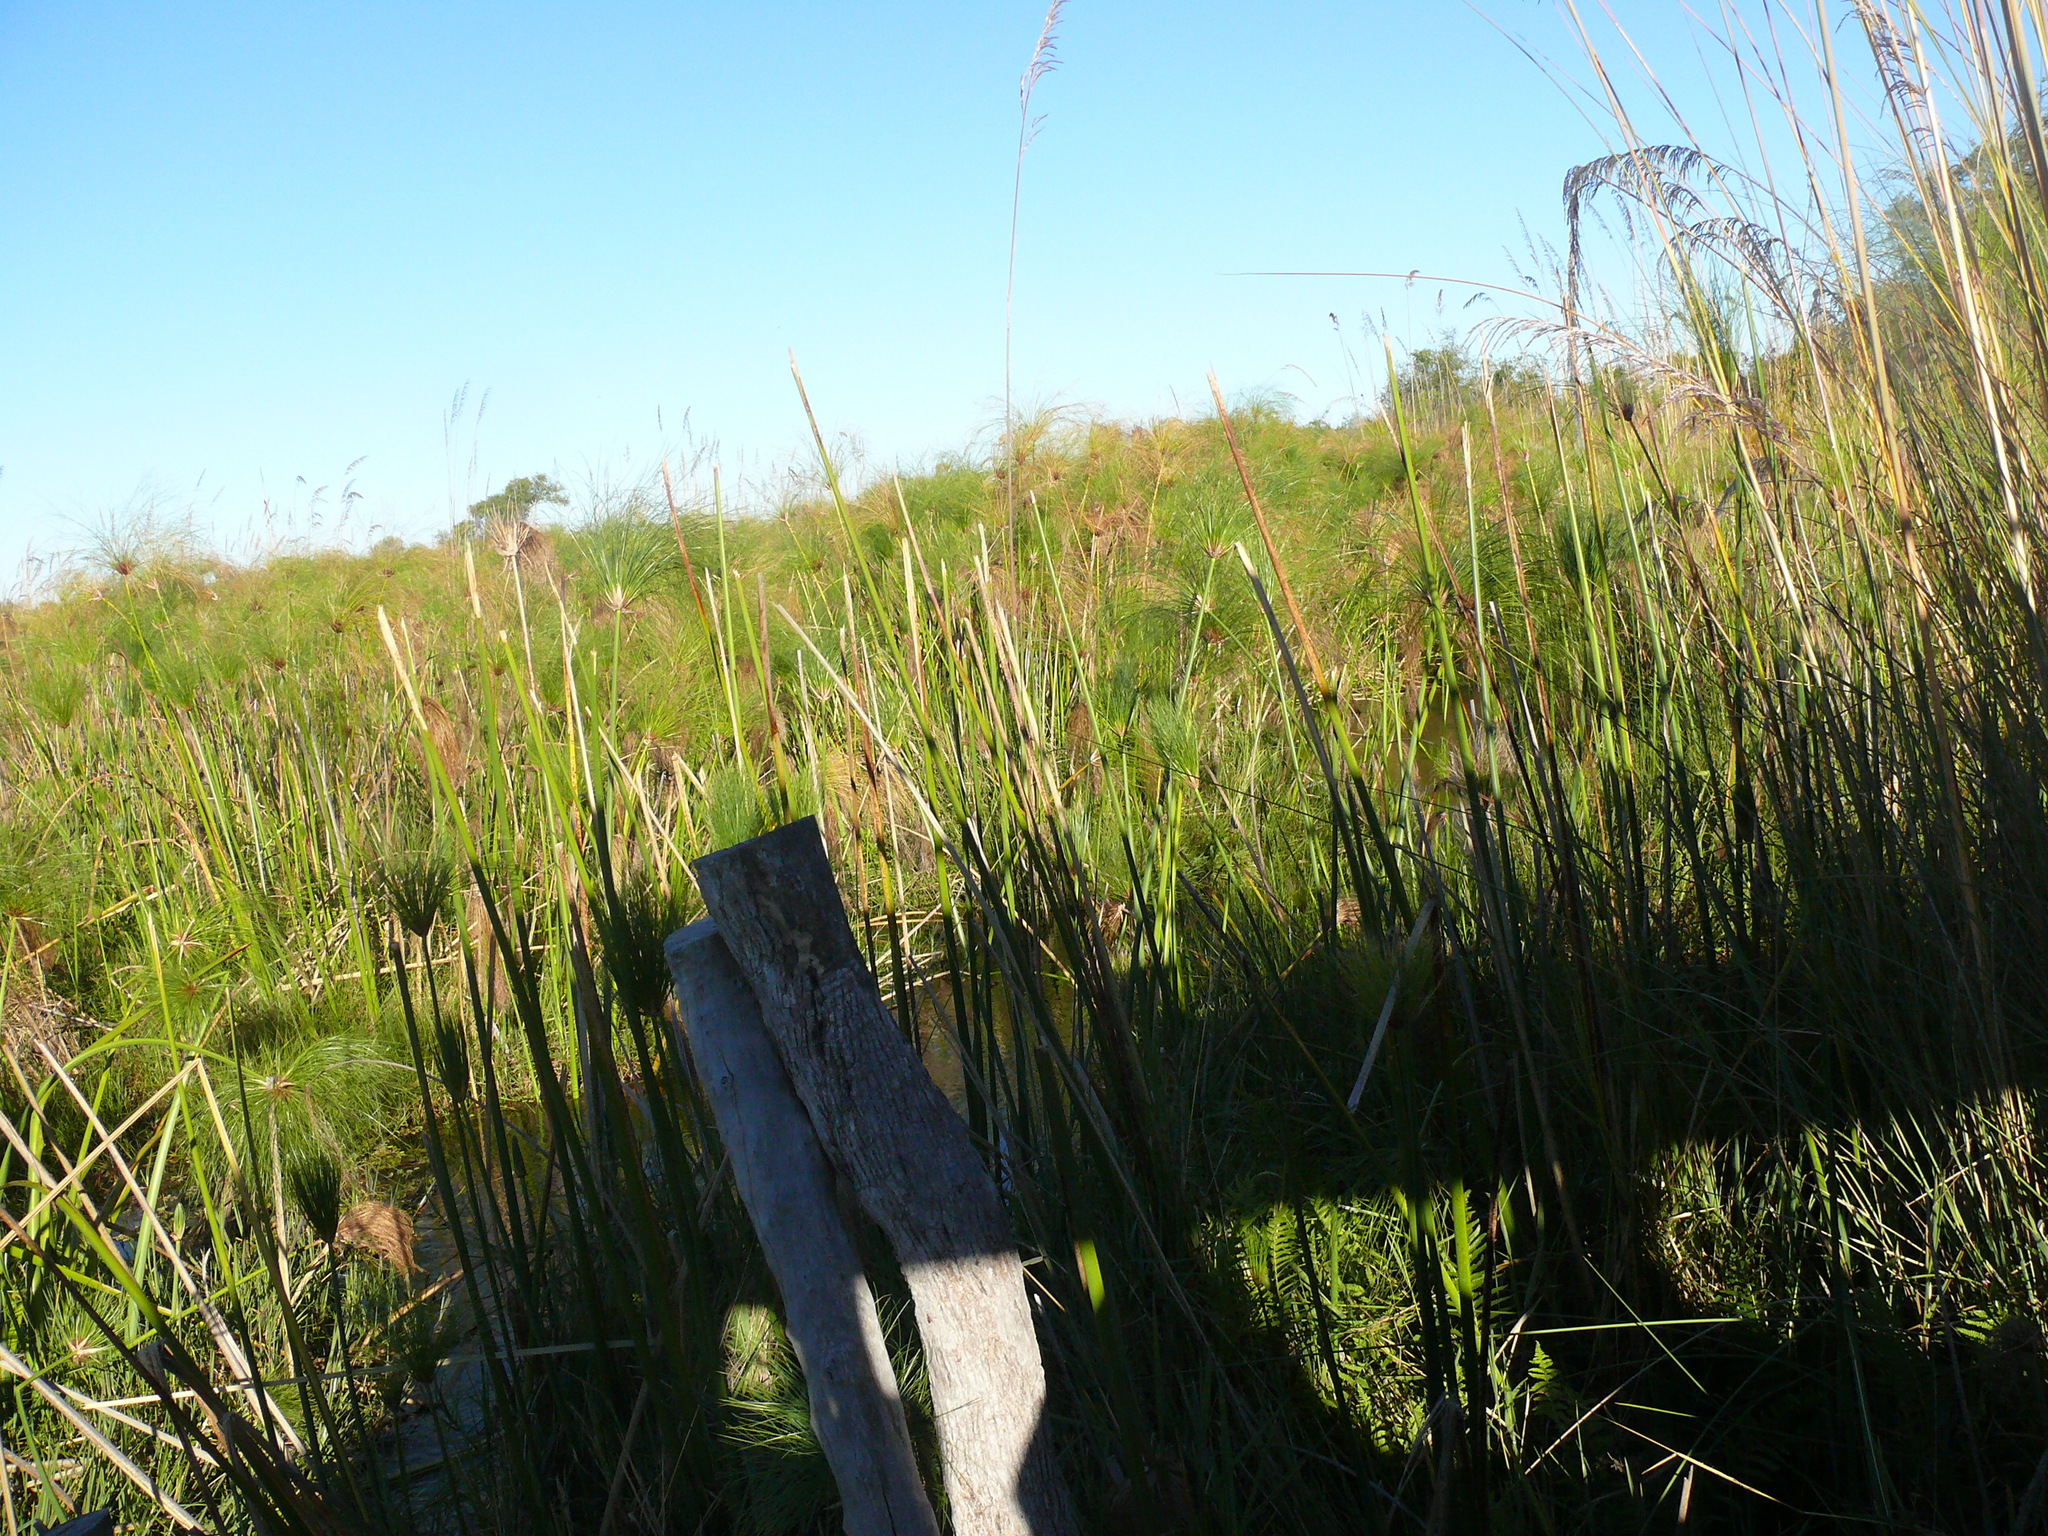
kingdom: Plantae
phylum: Tracheophyta
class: Liliopsida
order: Poales
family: Cyperaceae
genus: Cyperus
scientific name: Cyperus papyrus
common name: Papyrus
